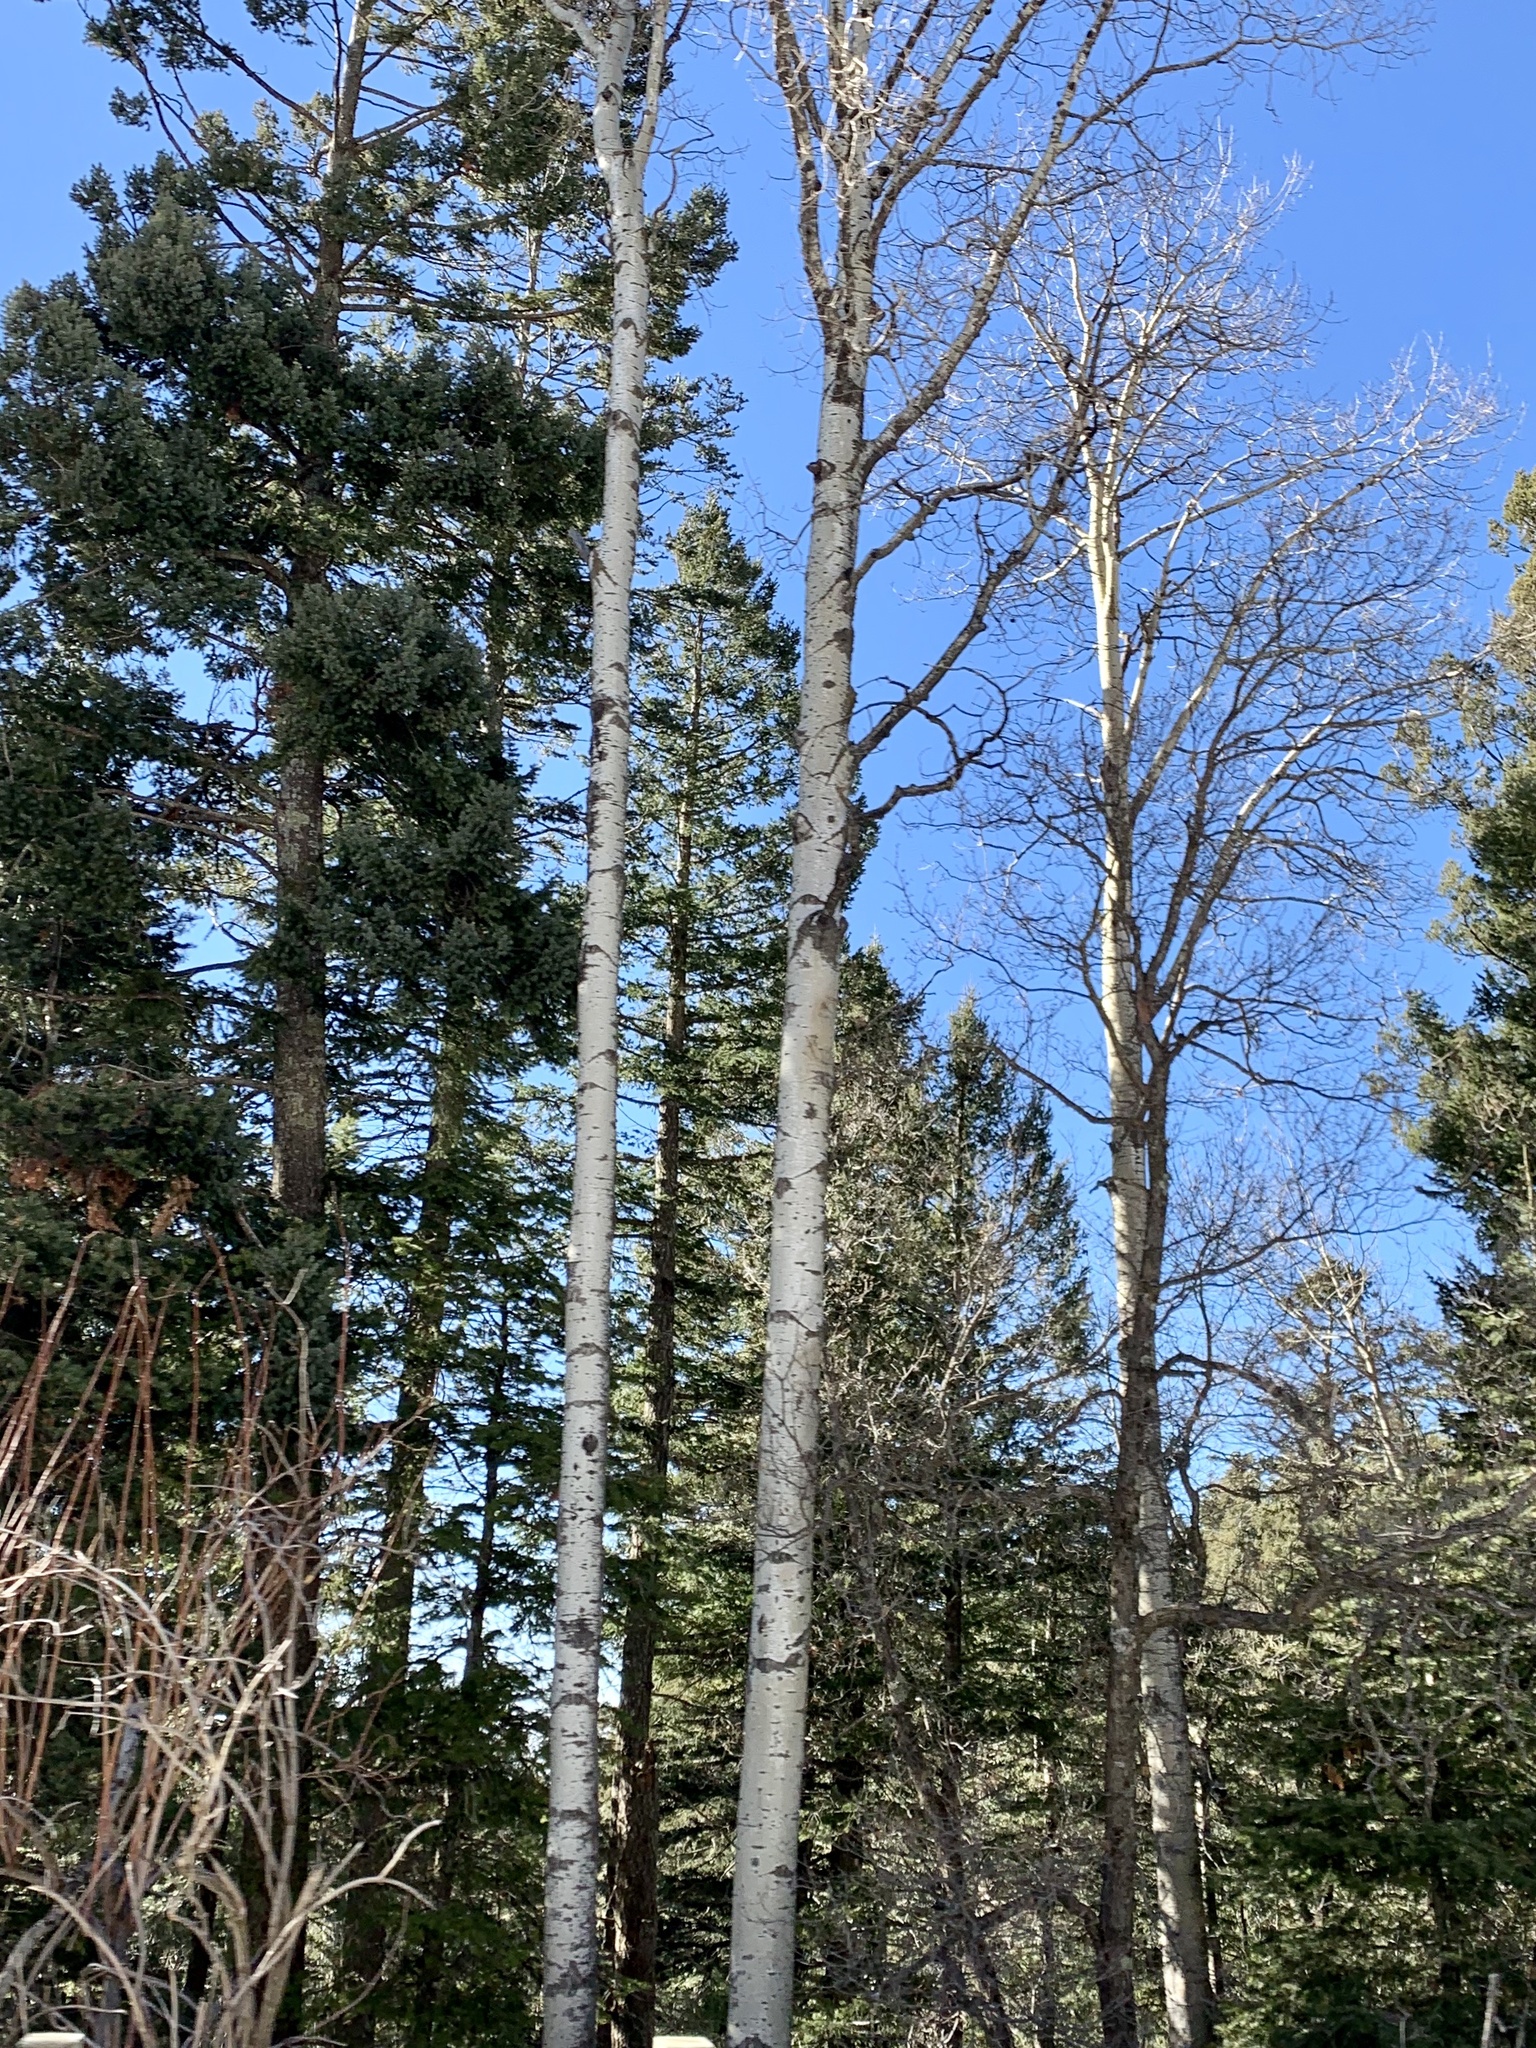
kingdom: Plantae
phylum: Tracheophyta
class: Magnoliopsida
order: Malpighiales
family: Salicaceae
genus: Populus
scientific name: Populus tremuloides
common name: Quaking aspen
